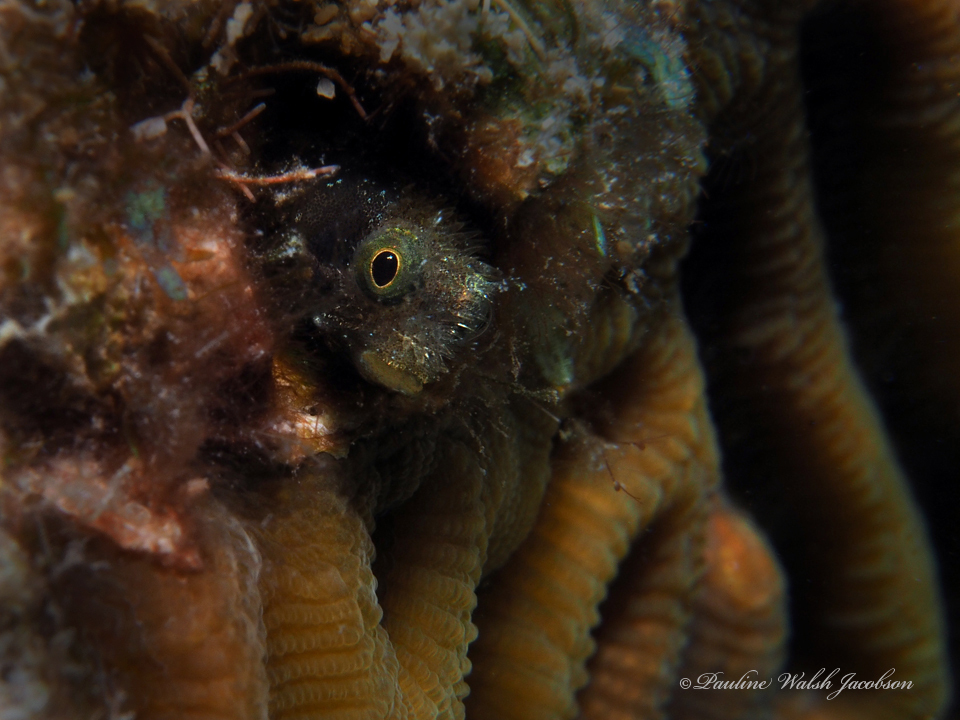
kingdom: Animalia
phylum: Chordata
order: Perciformes
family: Chaenopsidae
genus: Acanthemblemaria
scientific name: Acanthemblemaria spinosa
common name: Spinyhead blenny
